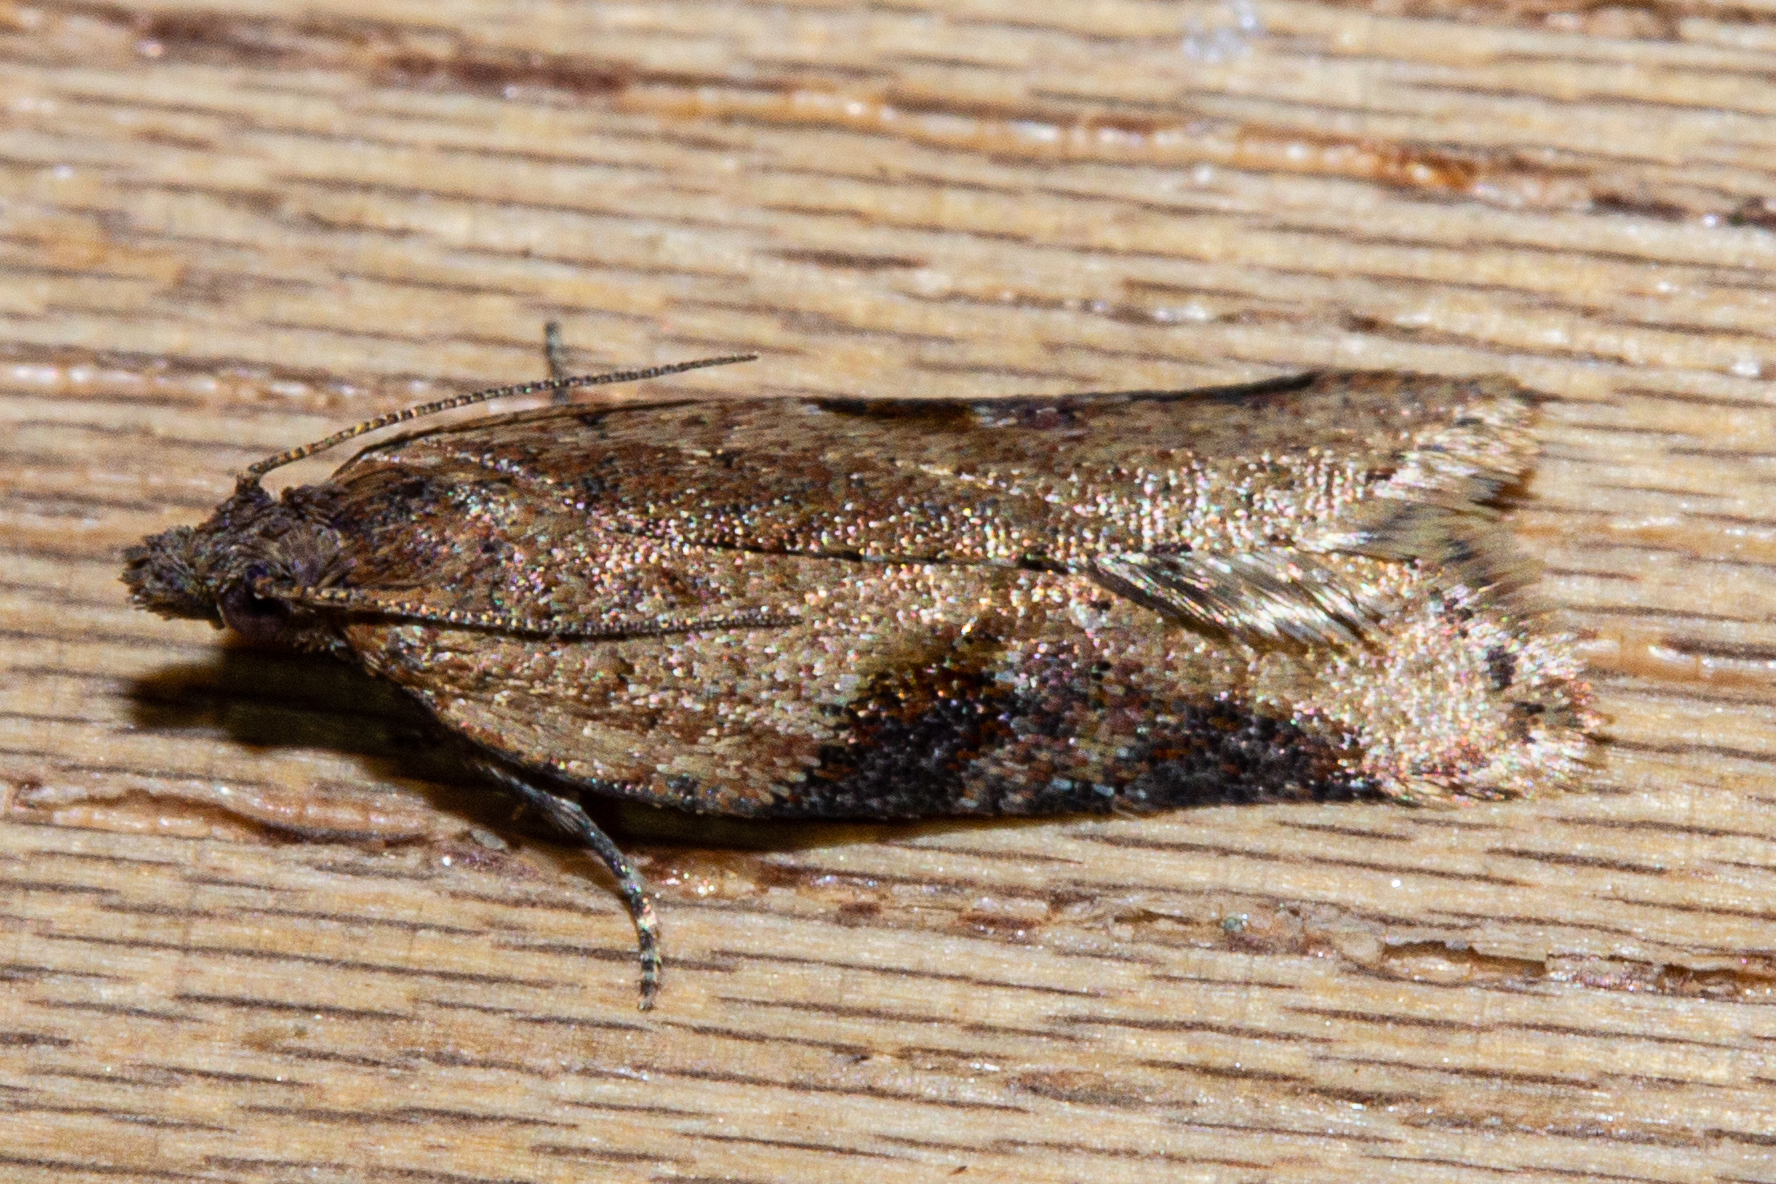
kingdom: Animalia
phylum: Arthropoda
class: Insecta
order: Lepidoptera
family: Tortricidae
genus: Capua
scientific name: Capua semiferana
